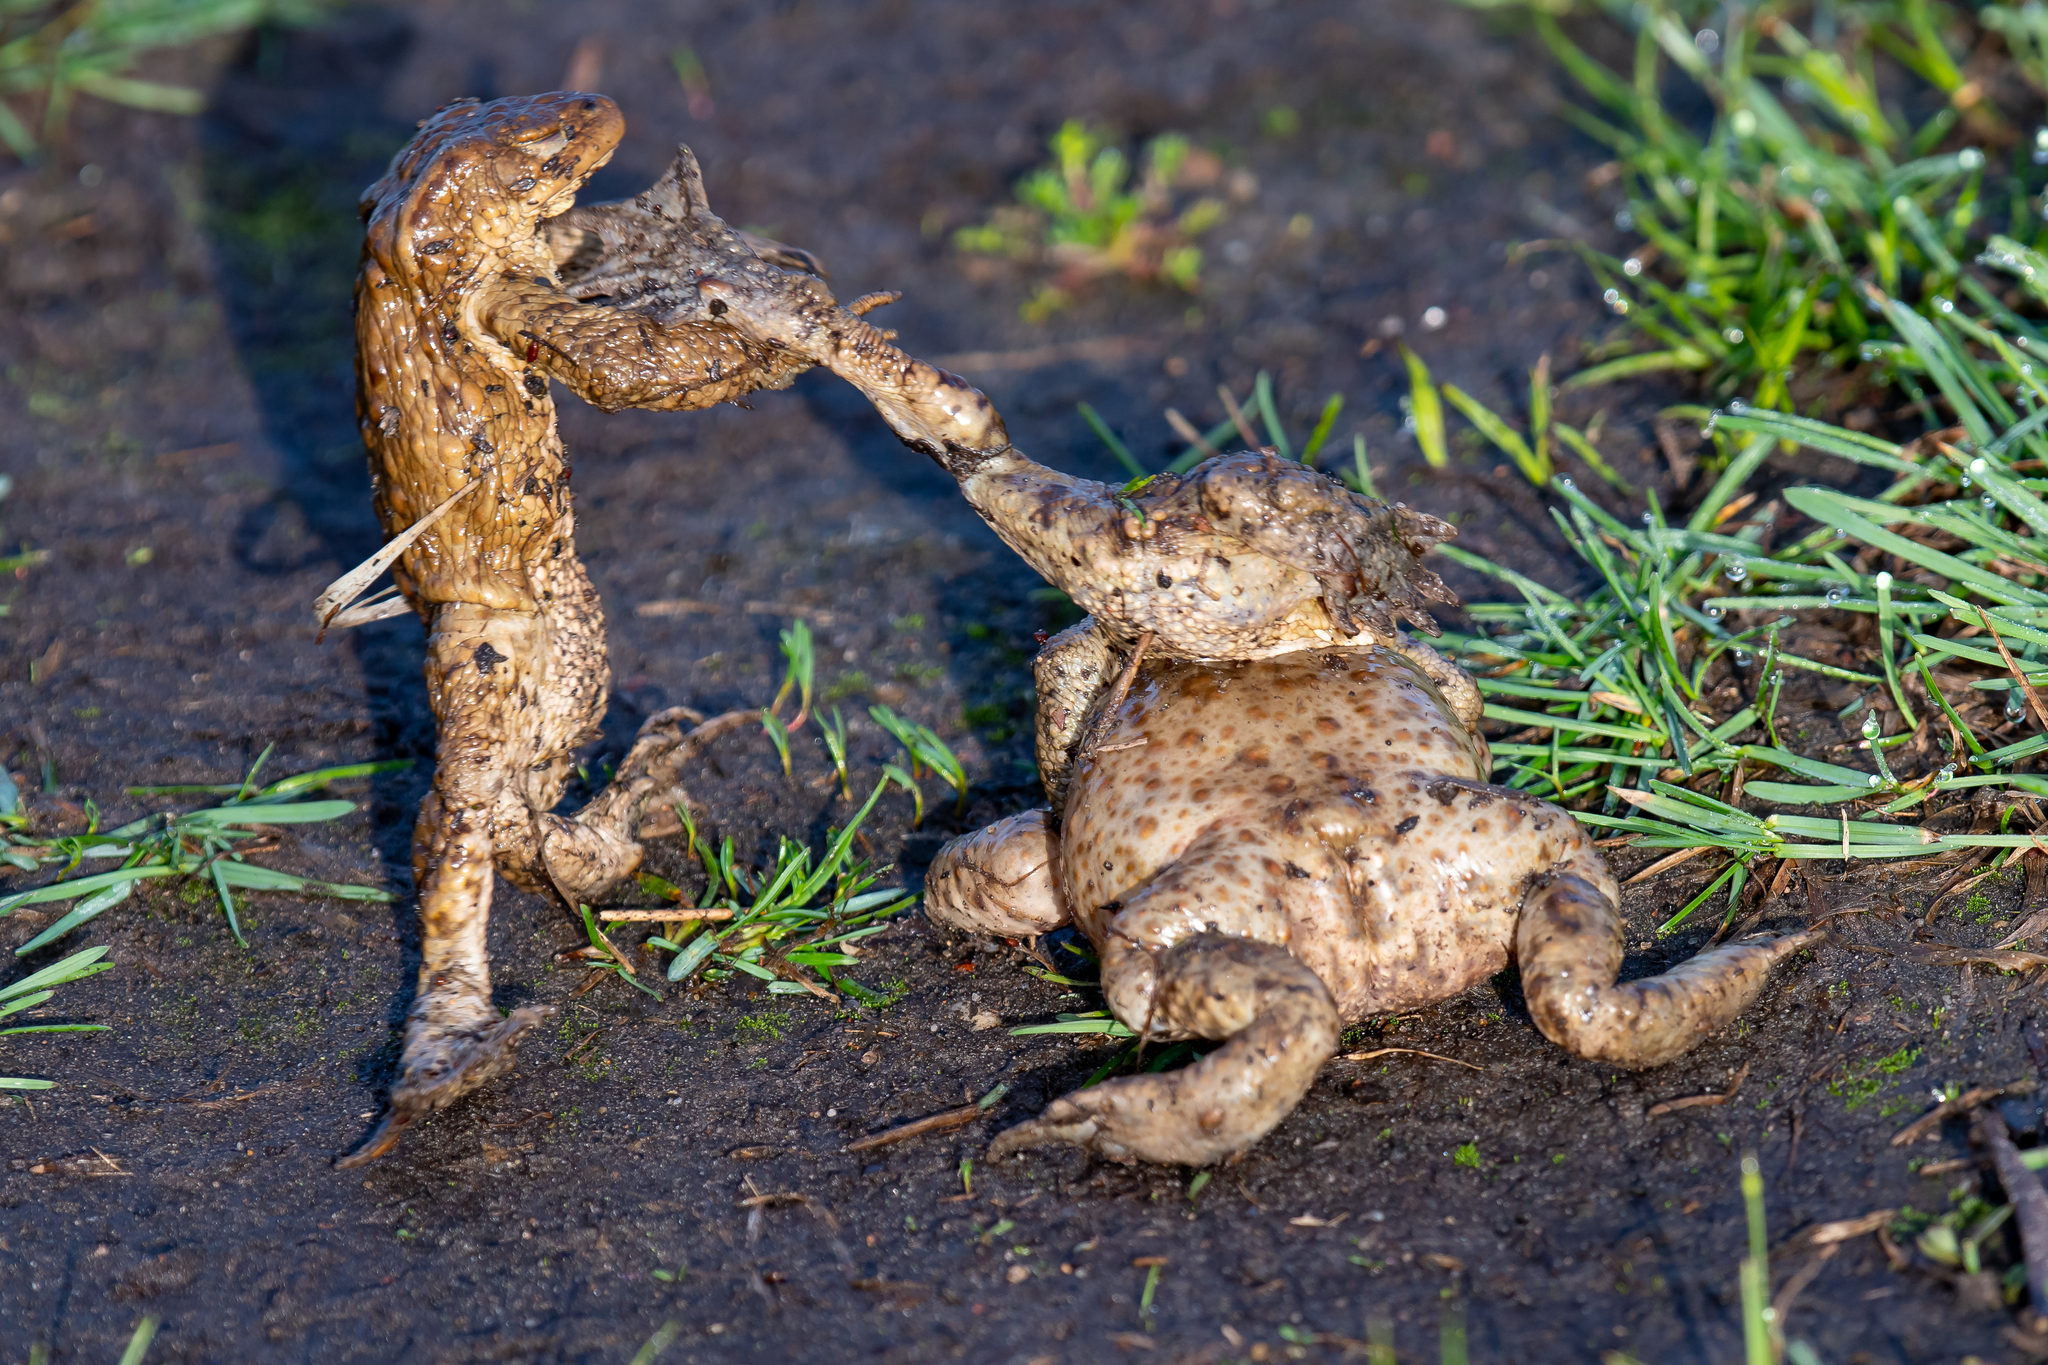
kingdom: Animalia
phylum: Chordata
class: Amphibia
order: Anura
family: Bufonidae
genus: Bufo
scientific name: Bufo bufo
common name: Common toad
